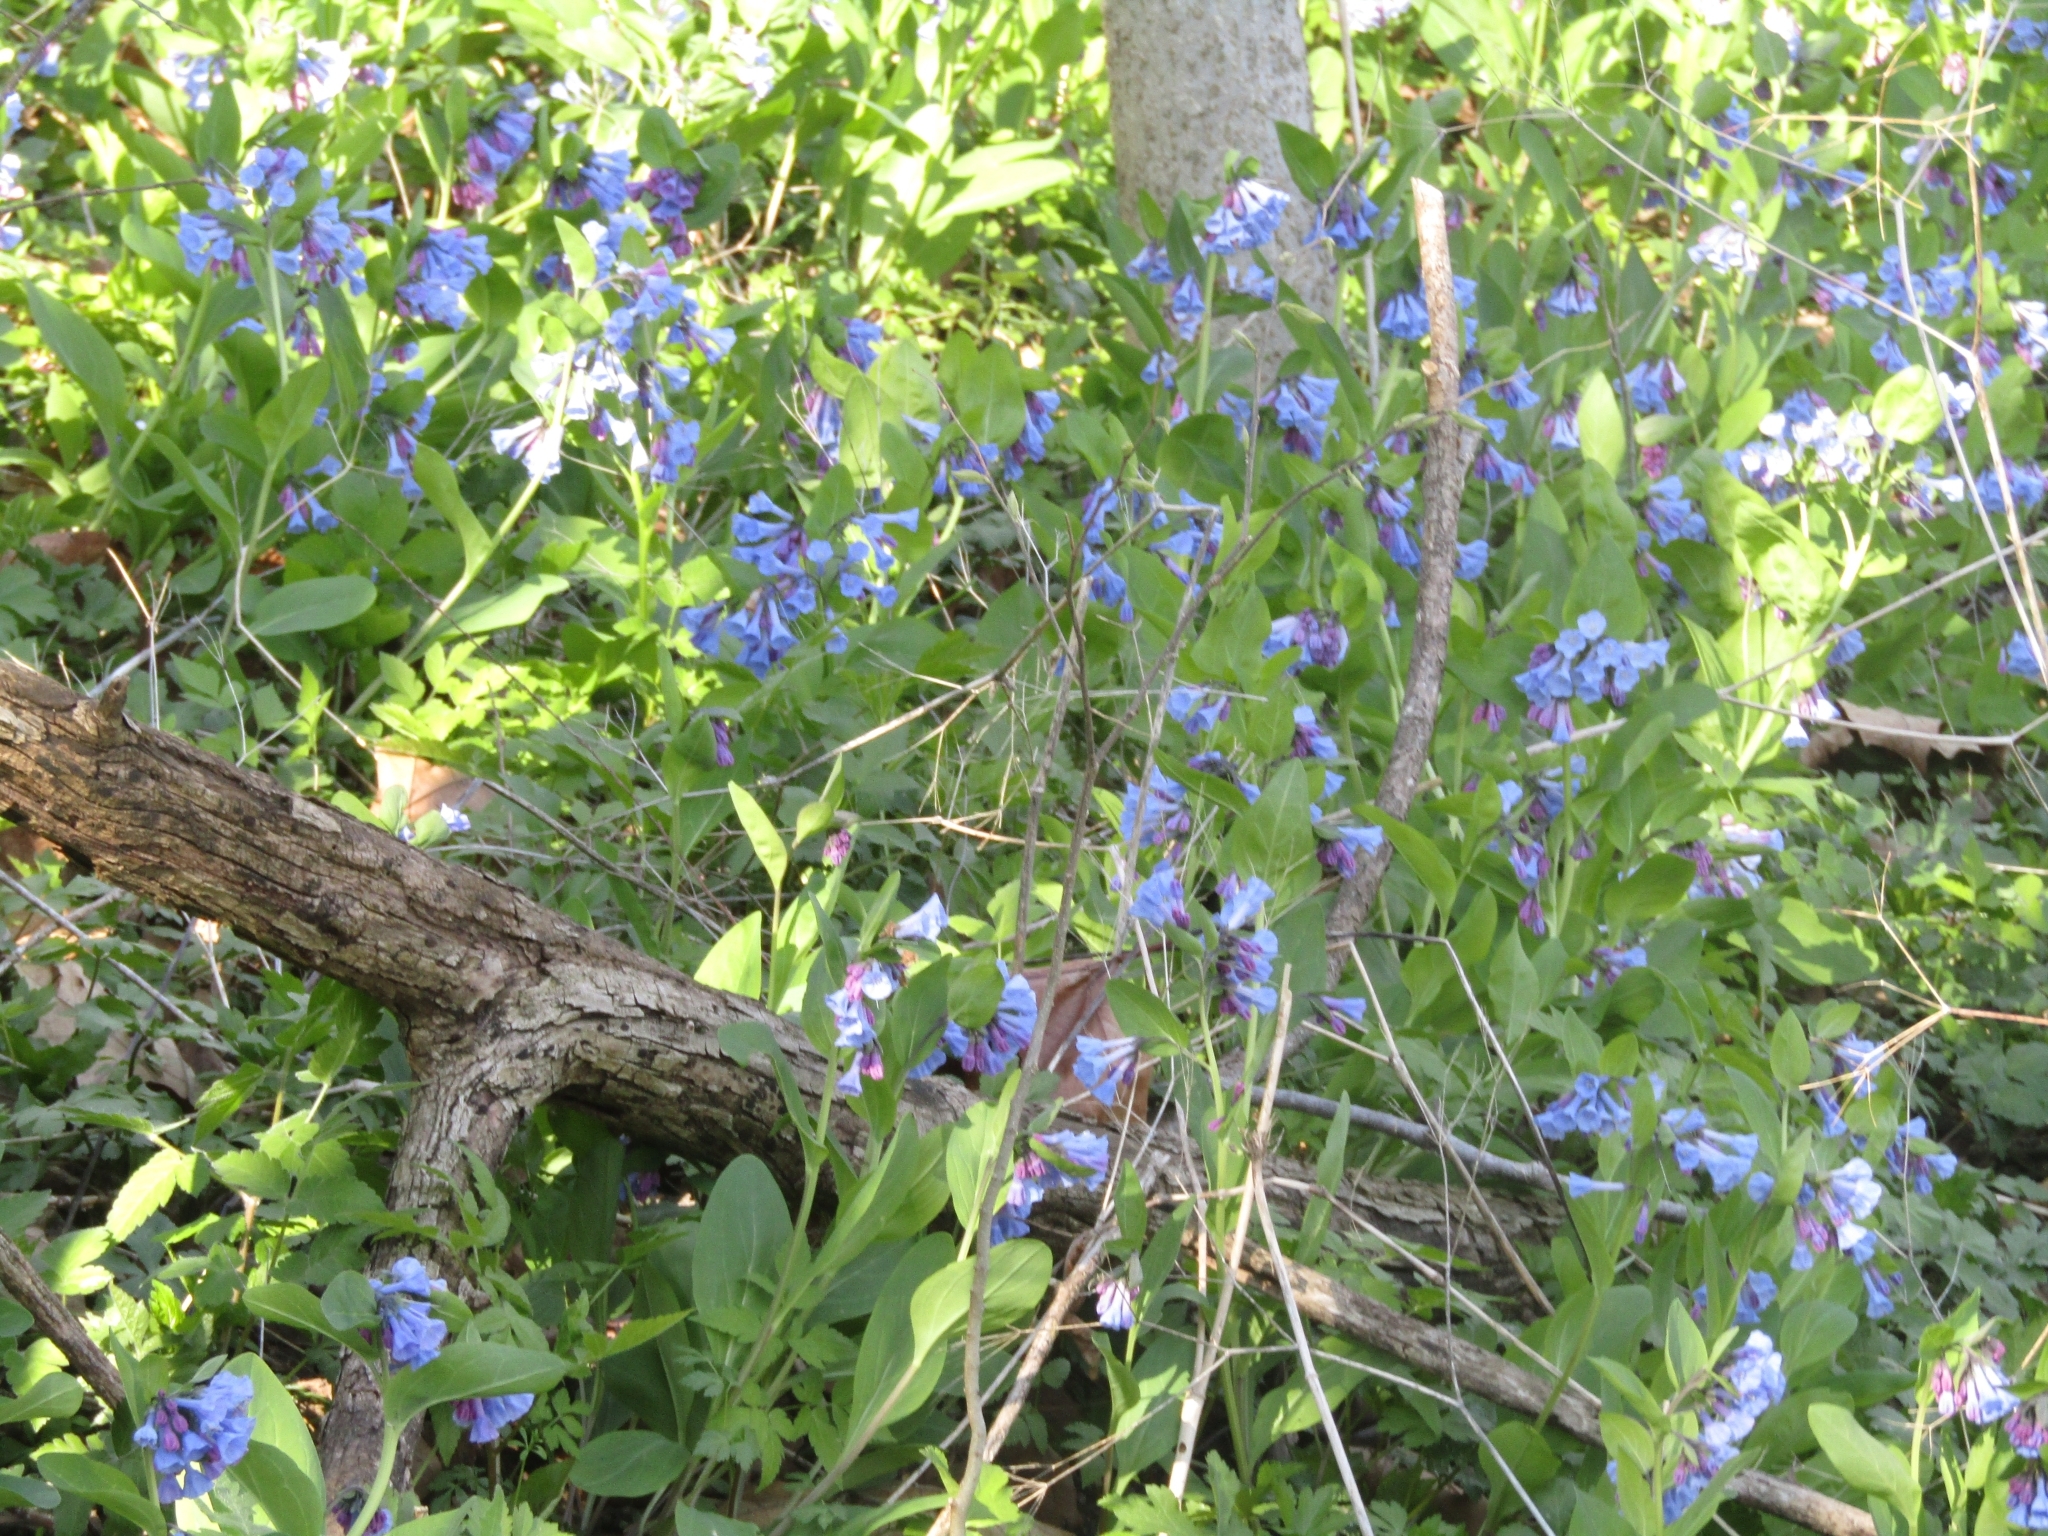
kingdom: Plantae
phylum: Tracheophyta
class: Magnoliopsida
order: Boraginales
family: Boraginaceae
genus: Mertensia
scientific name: Mertensia virginica
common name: Virginia bluebells
